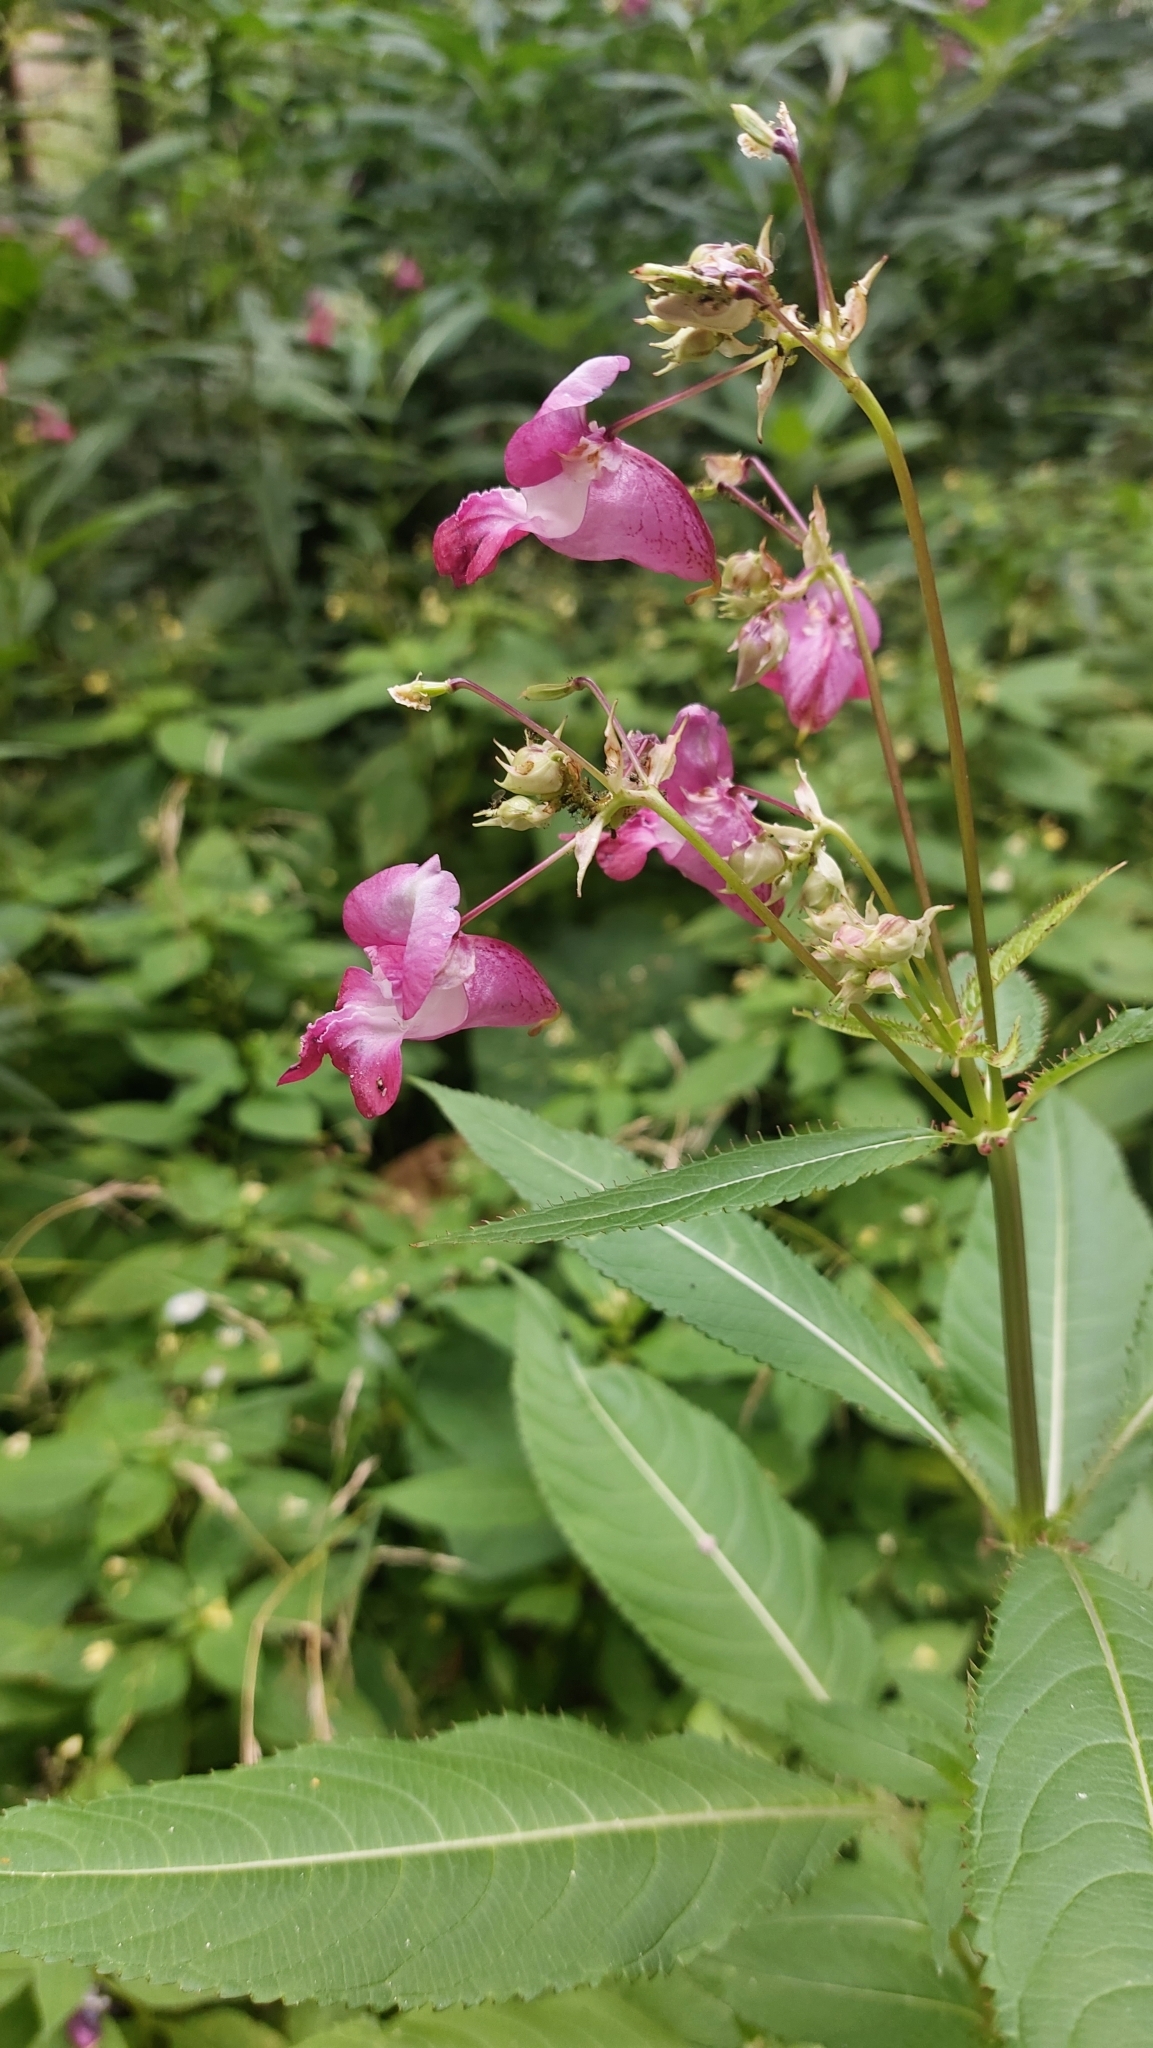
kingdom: Plantae
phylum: Tracheophyta
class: Magnoliopsida
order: Ericales
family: Balsaminaceae
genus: Impatiens
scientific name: Impatiens glandulifera
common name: Himalayan balsam
